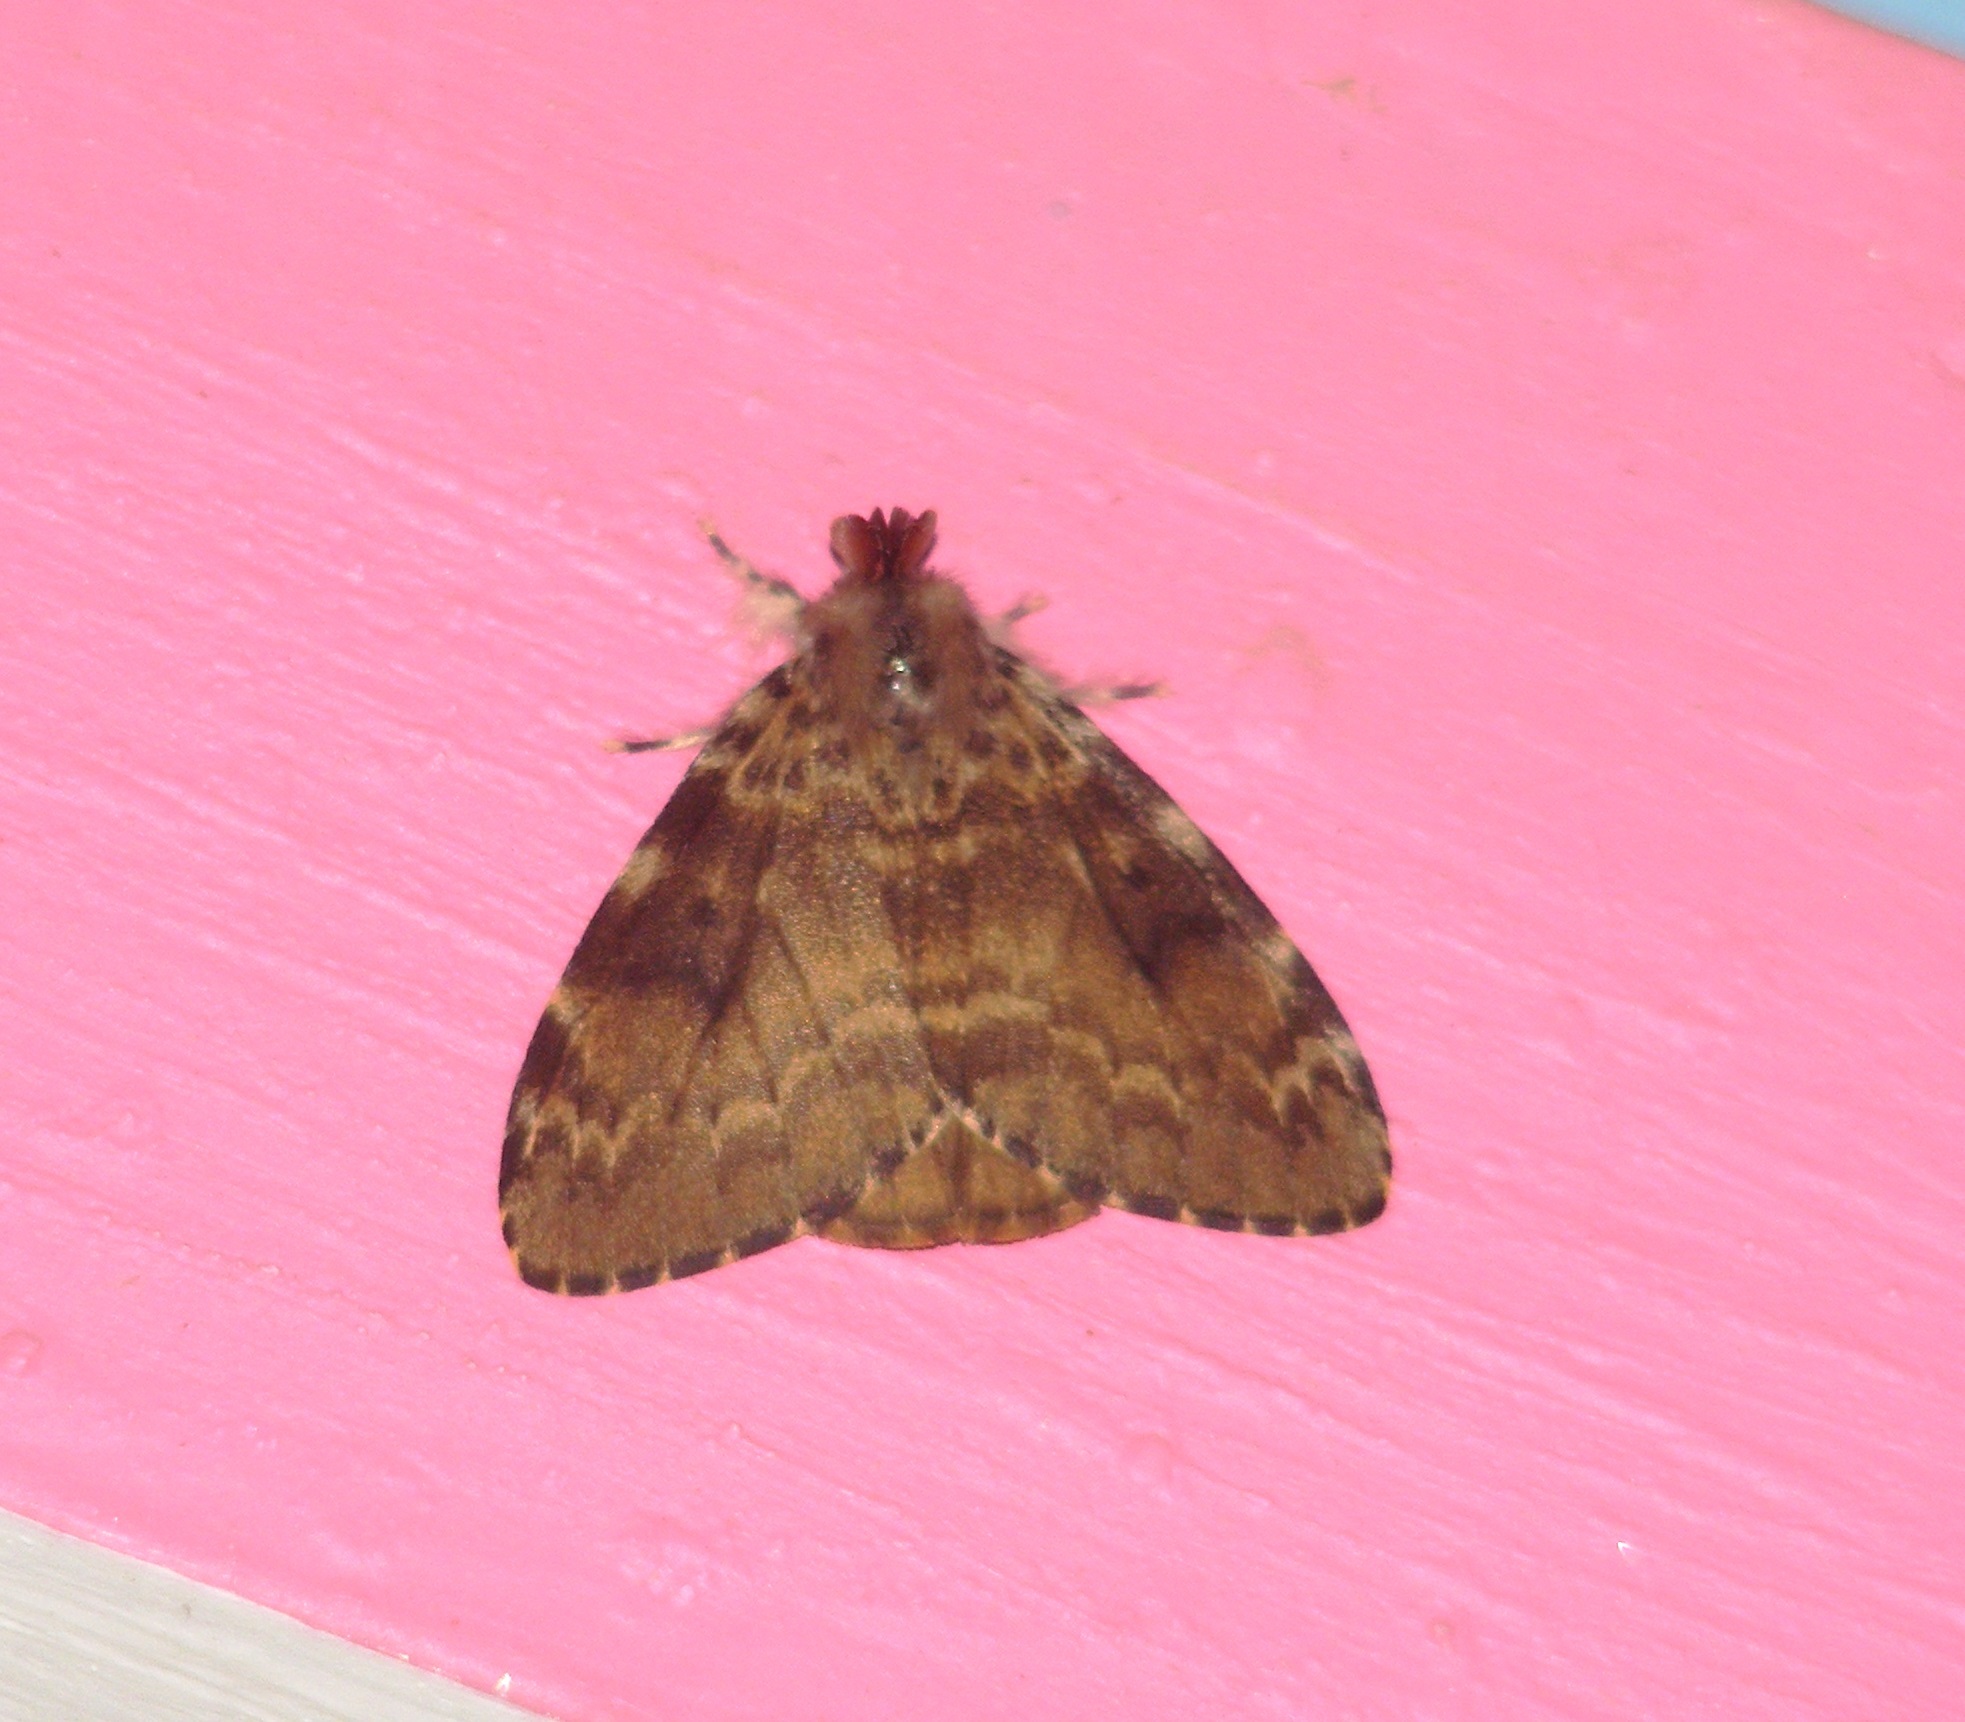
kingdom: Animalia
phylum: Arthropoda
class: Insecta
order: Lepidoptera
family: Erebidae
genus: Lymantria
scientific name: Lymantria ampla
